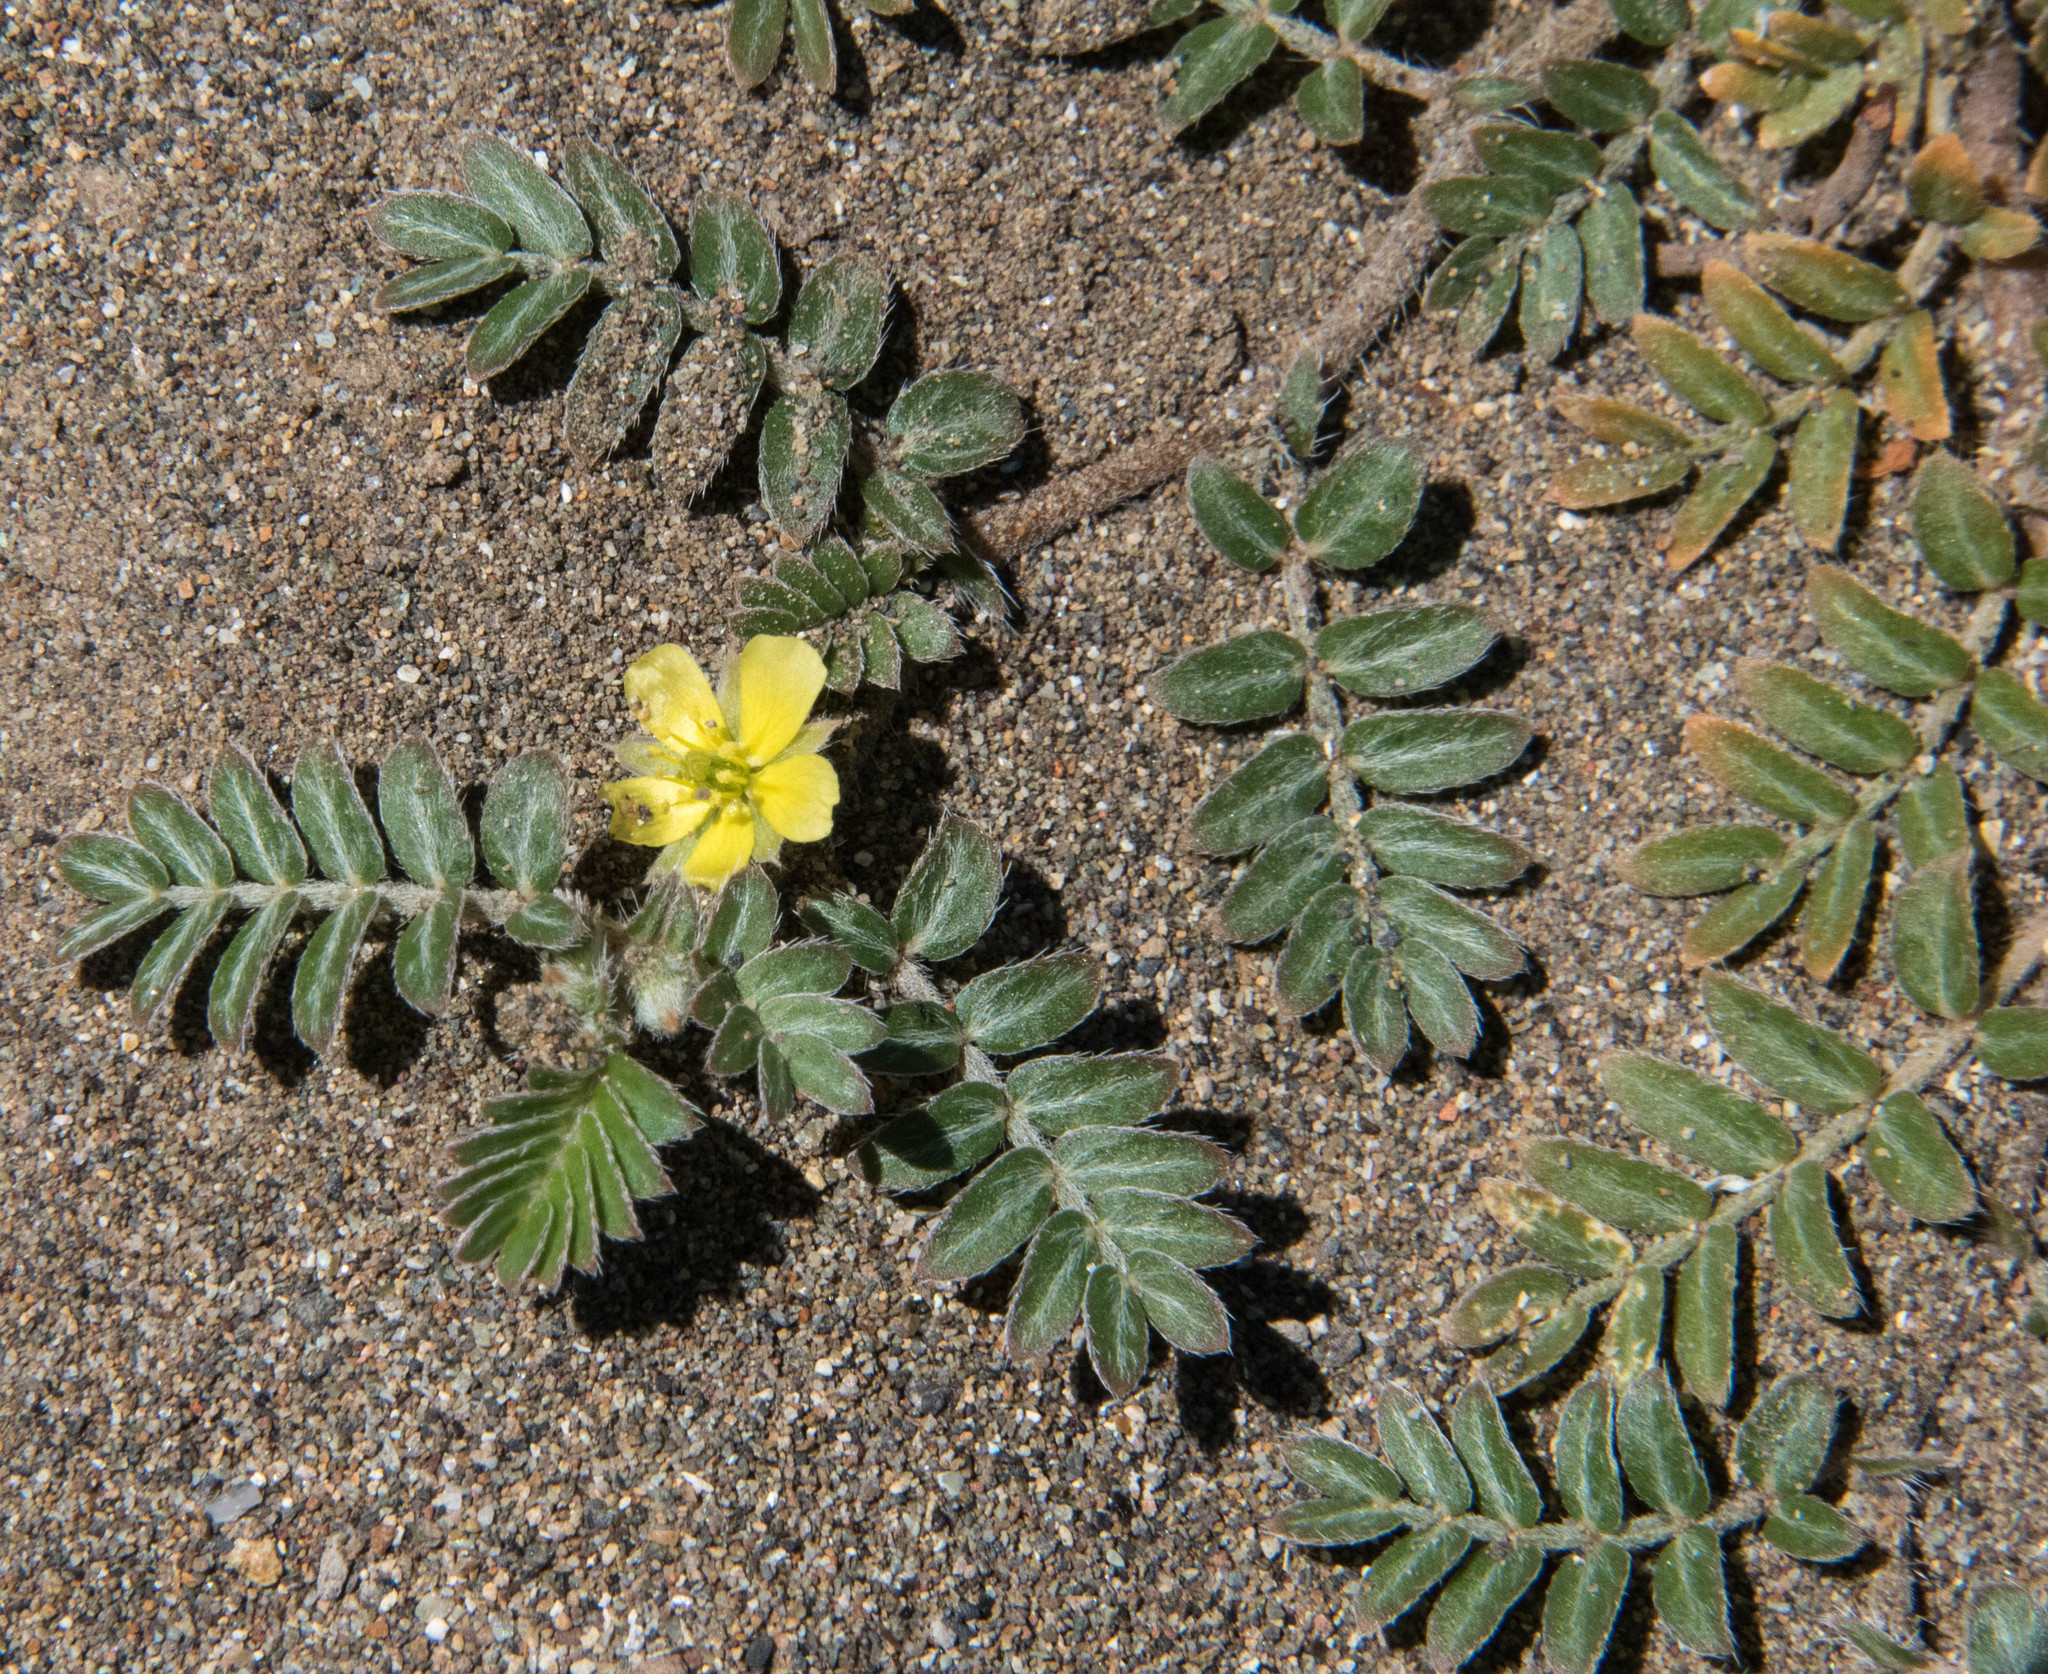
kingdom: Plantae
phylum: Tracheophyta
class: Magnoliopsida
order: Zygophyllales
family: Zygophyllaceae
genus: Tribulus
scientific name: Tribulus terrestris
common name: Puncturevine
